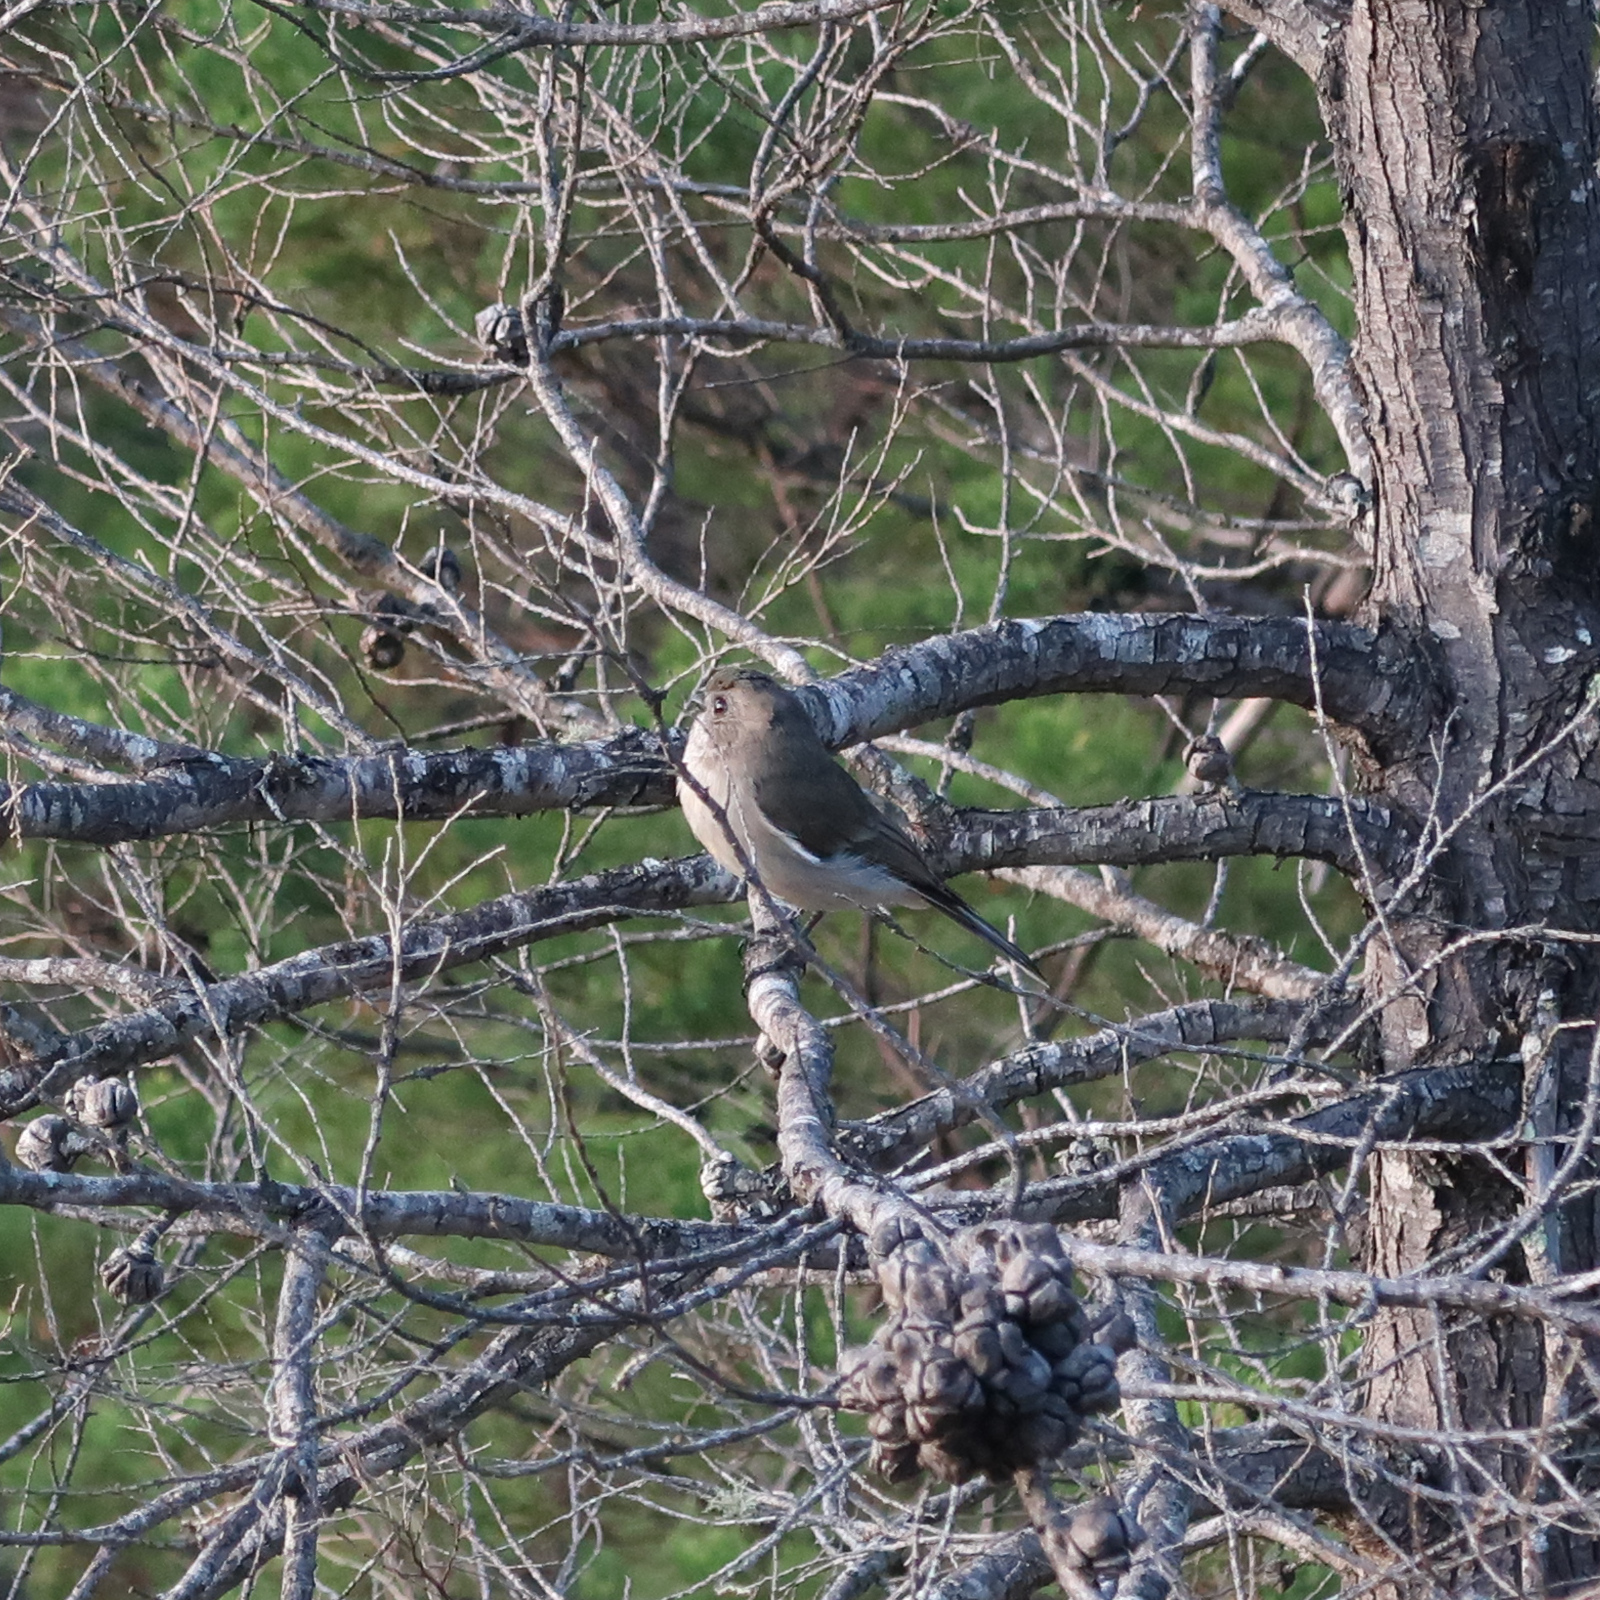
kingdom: Animalia
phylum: Chordata
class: Aves
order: Passeriformes
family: Pachycephalidae
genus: Pachycephala
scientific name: Pachycephala pectoralis
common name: Australian golden whistler
